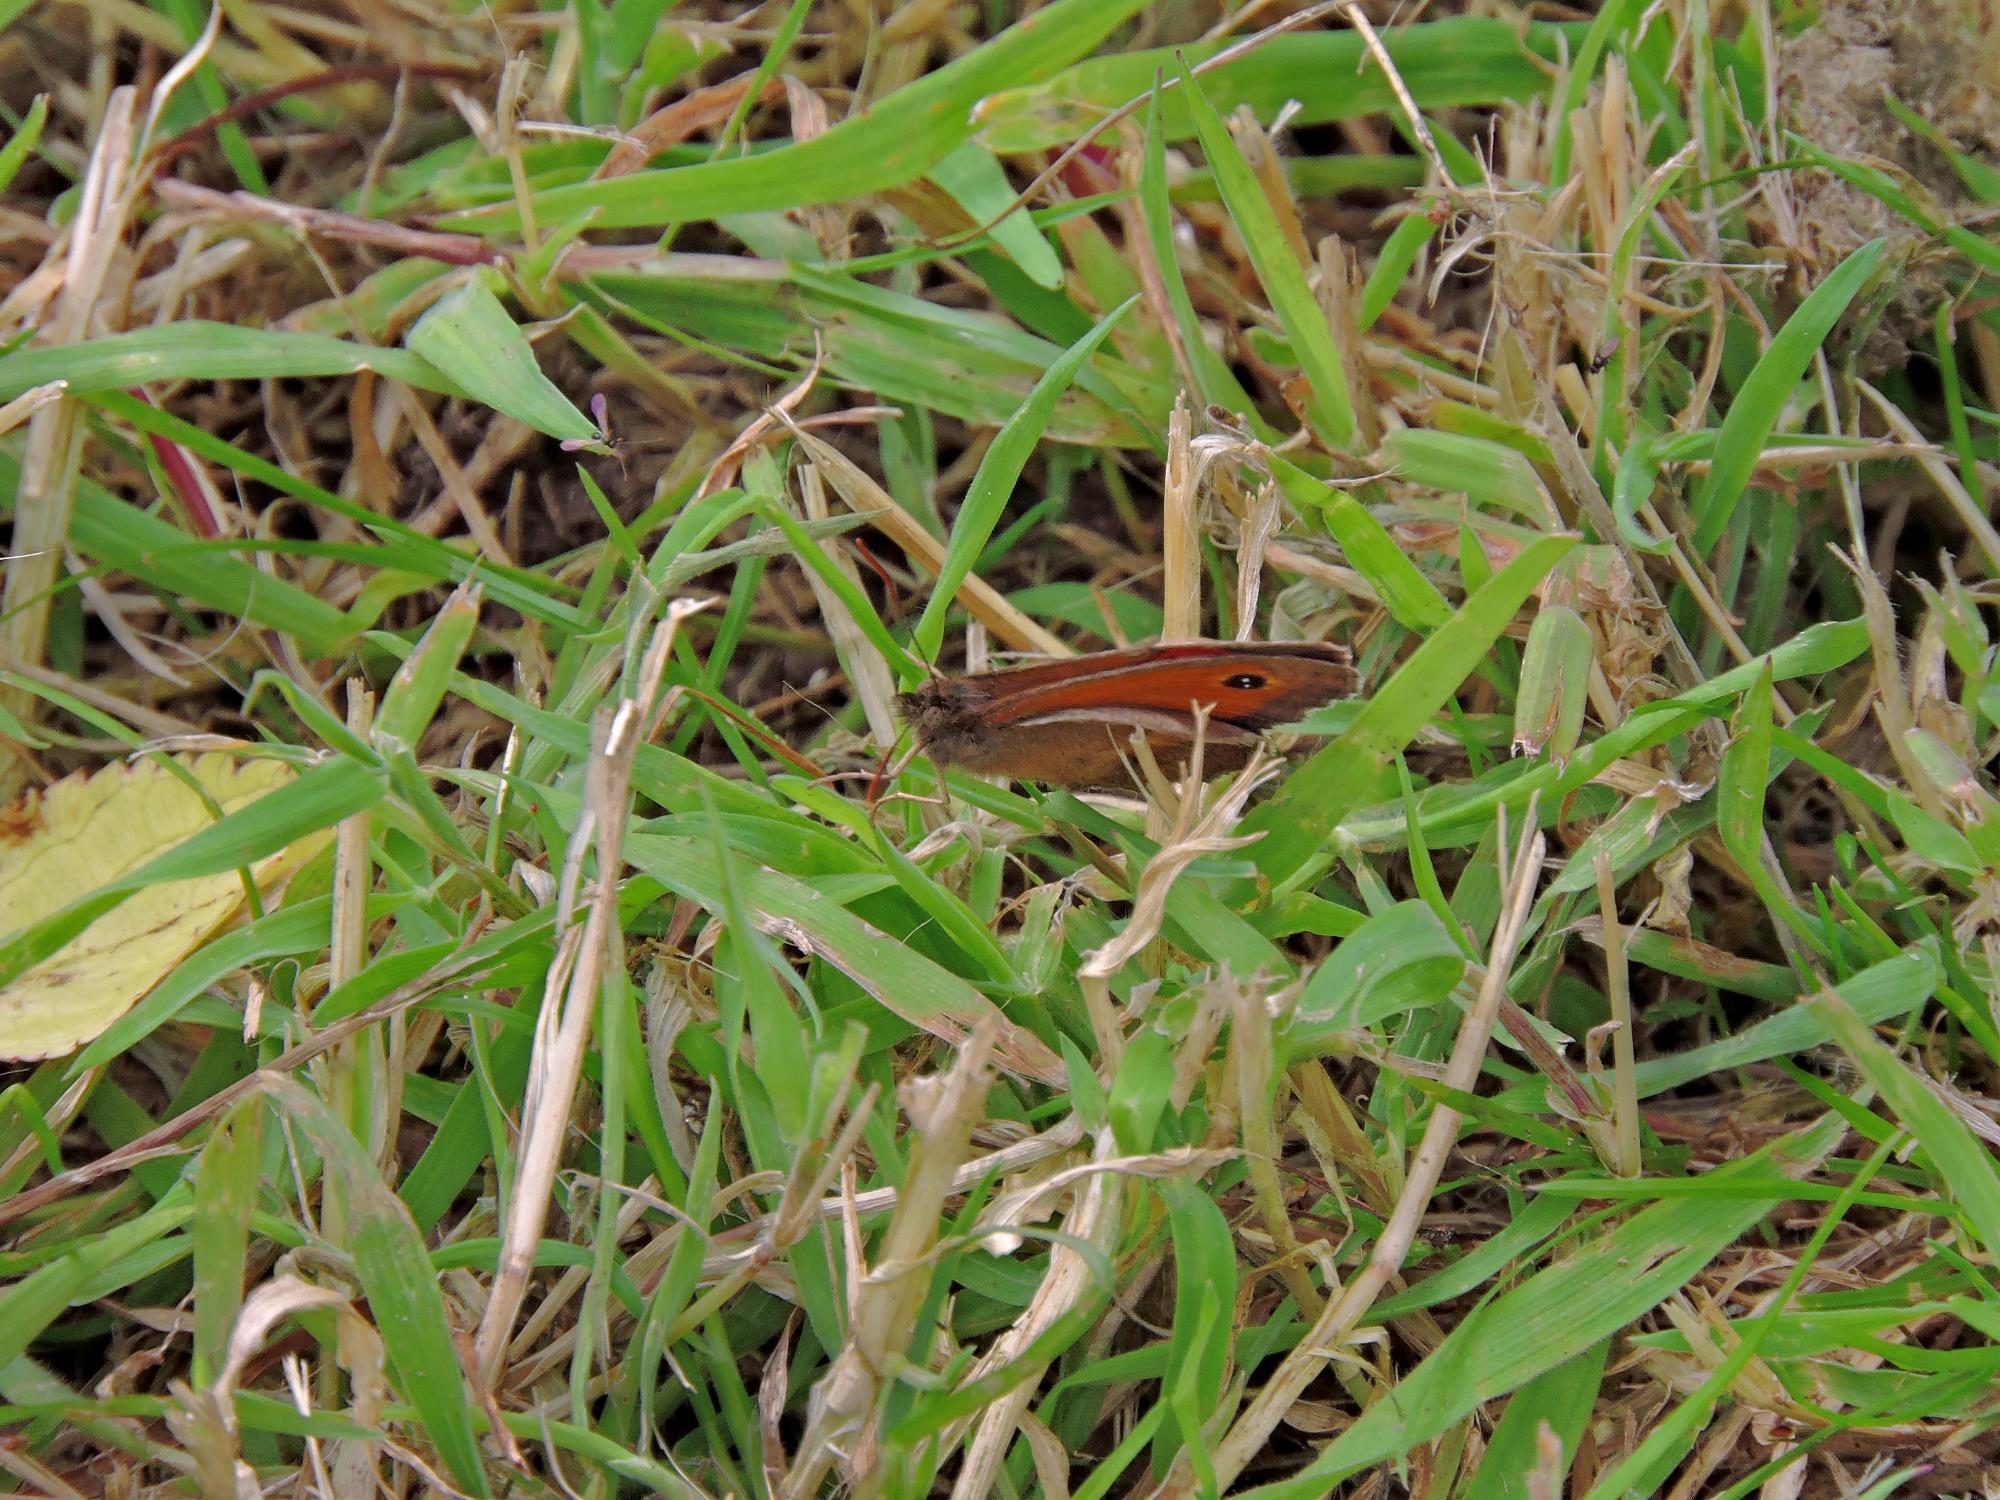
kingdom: Animalia
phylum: Arthropoda
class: Insecta
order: Lepidoptera
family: Nymphalidae
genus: Pyronia
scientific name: Pyronia tithonus
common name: Gatekeeper
